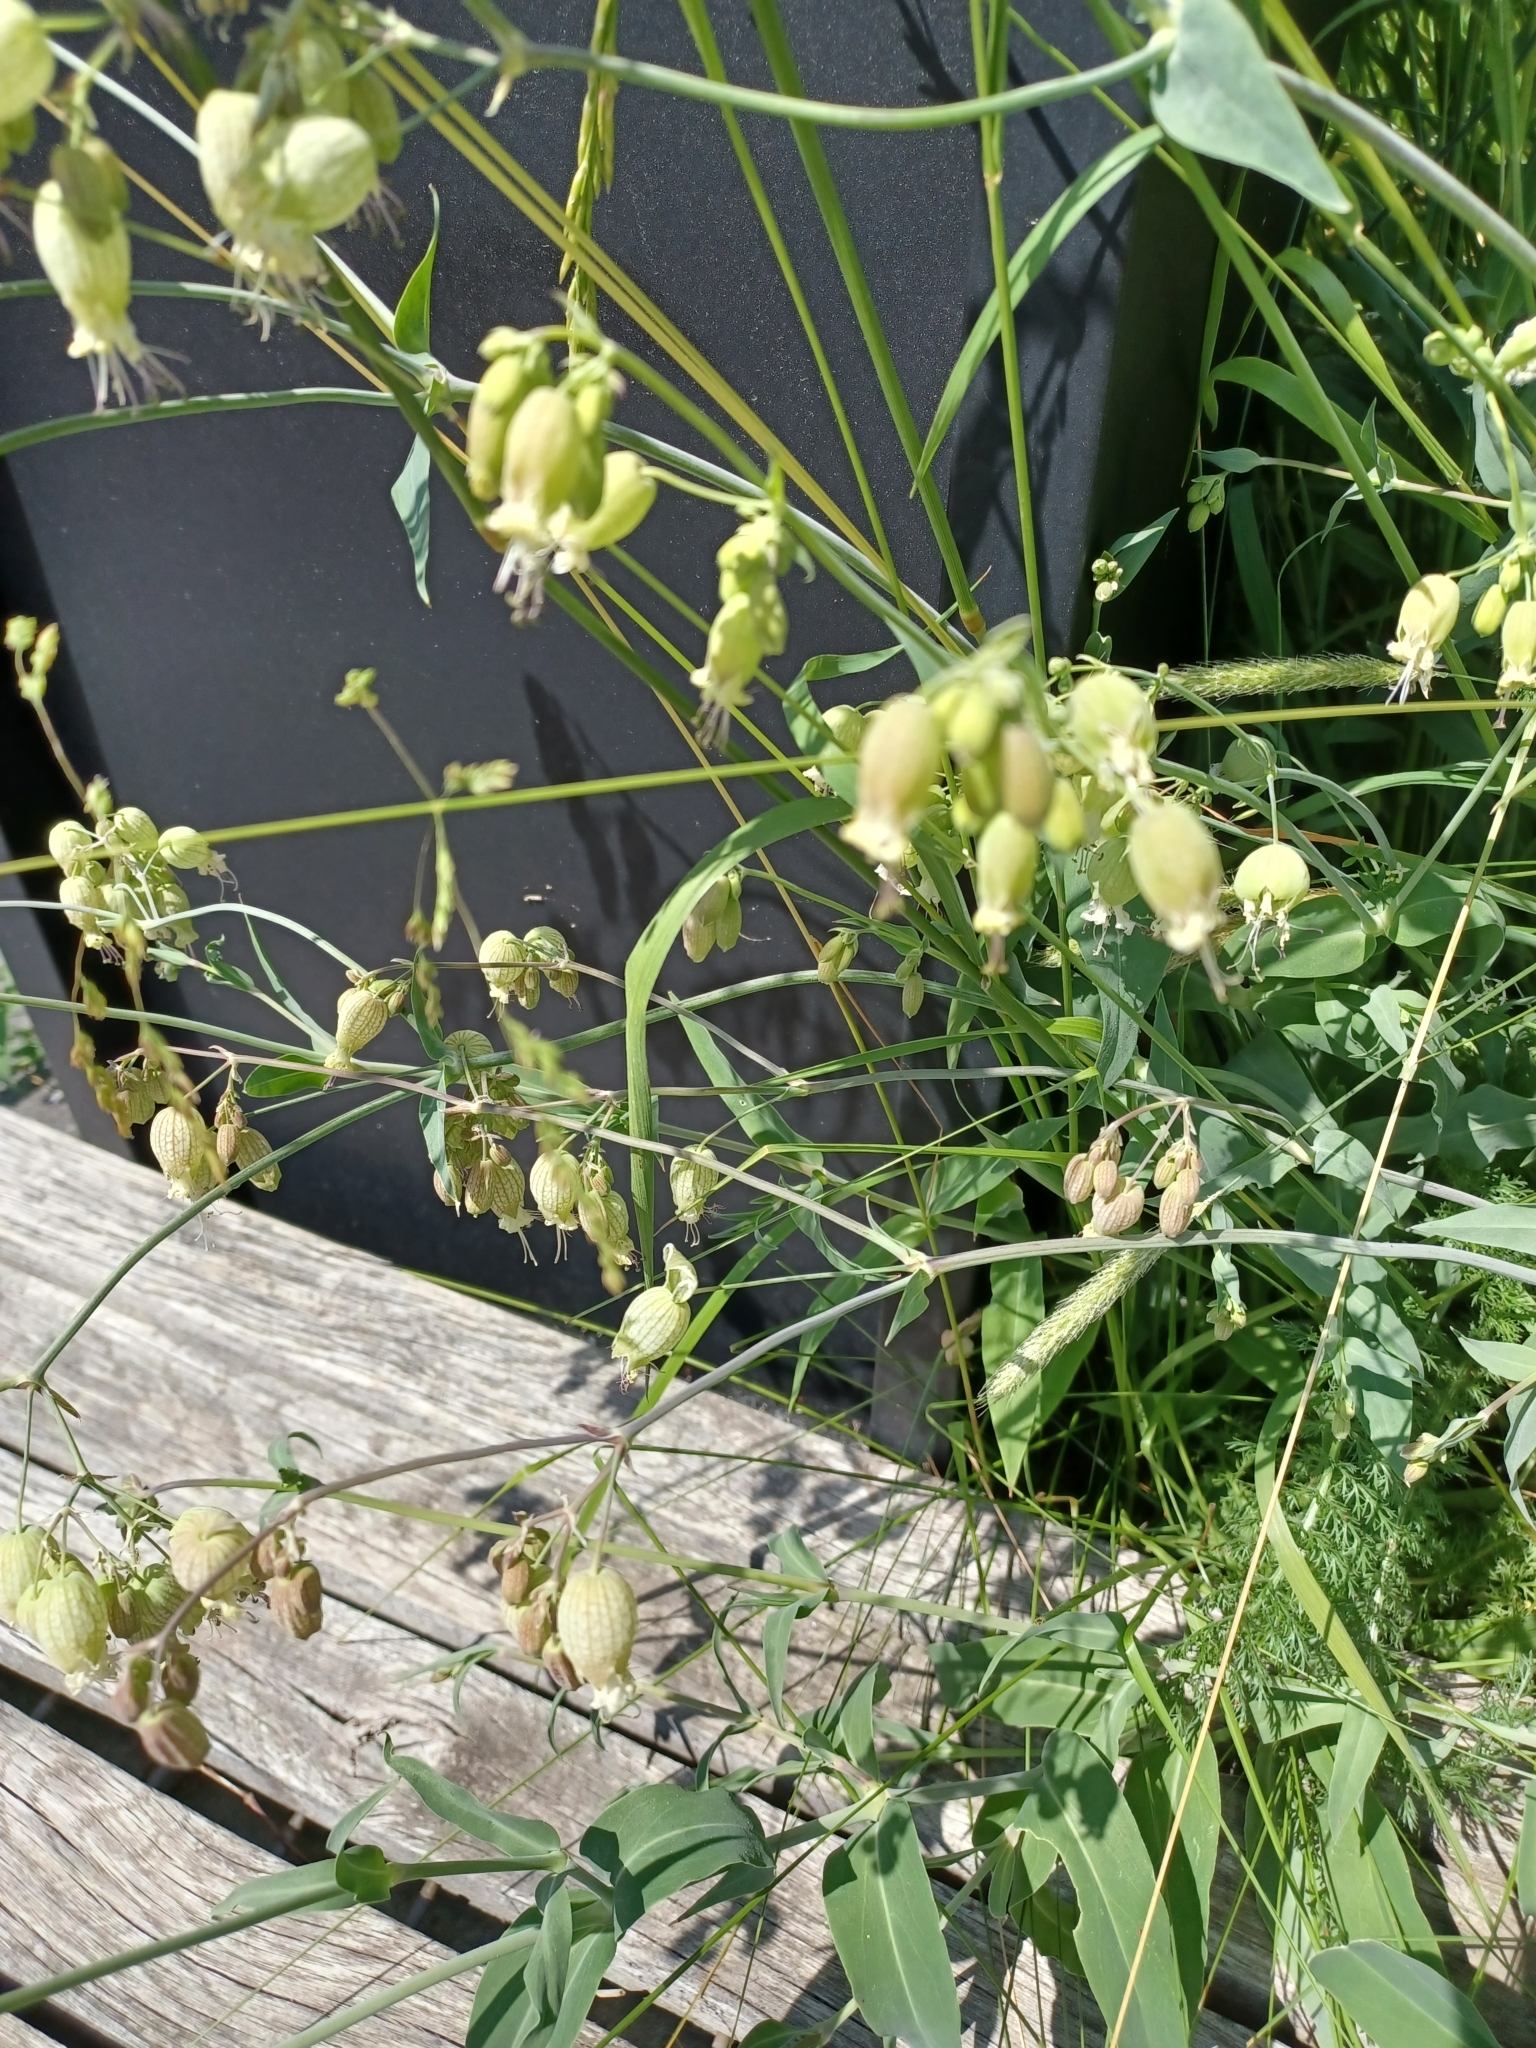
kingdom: Plantae
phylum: Tracheophyta
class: Magnoliopsida
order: Caryophyllales
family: Caryophyllaceae
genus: Silene
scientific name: Silene vulgaris
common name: Bladder campion
